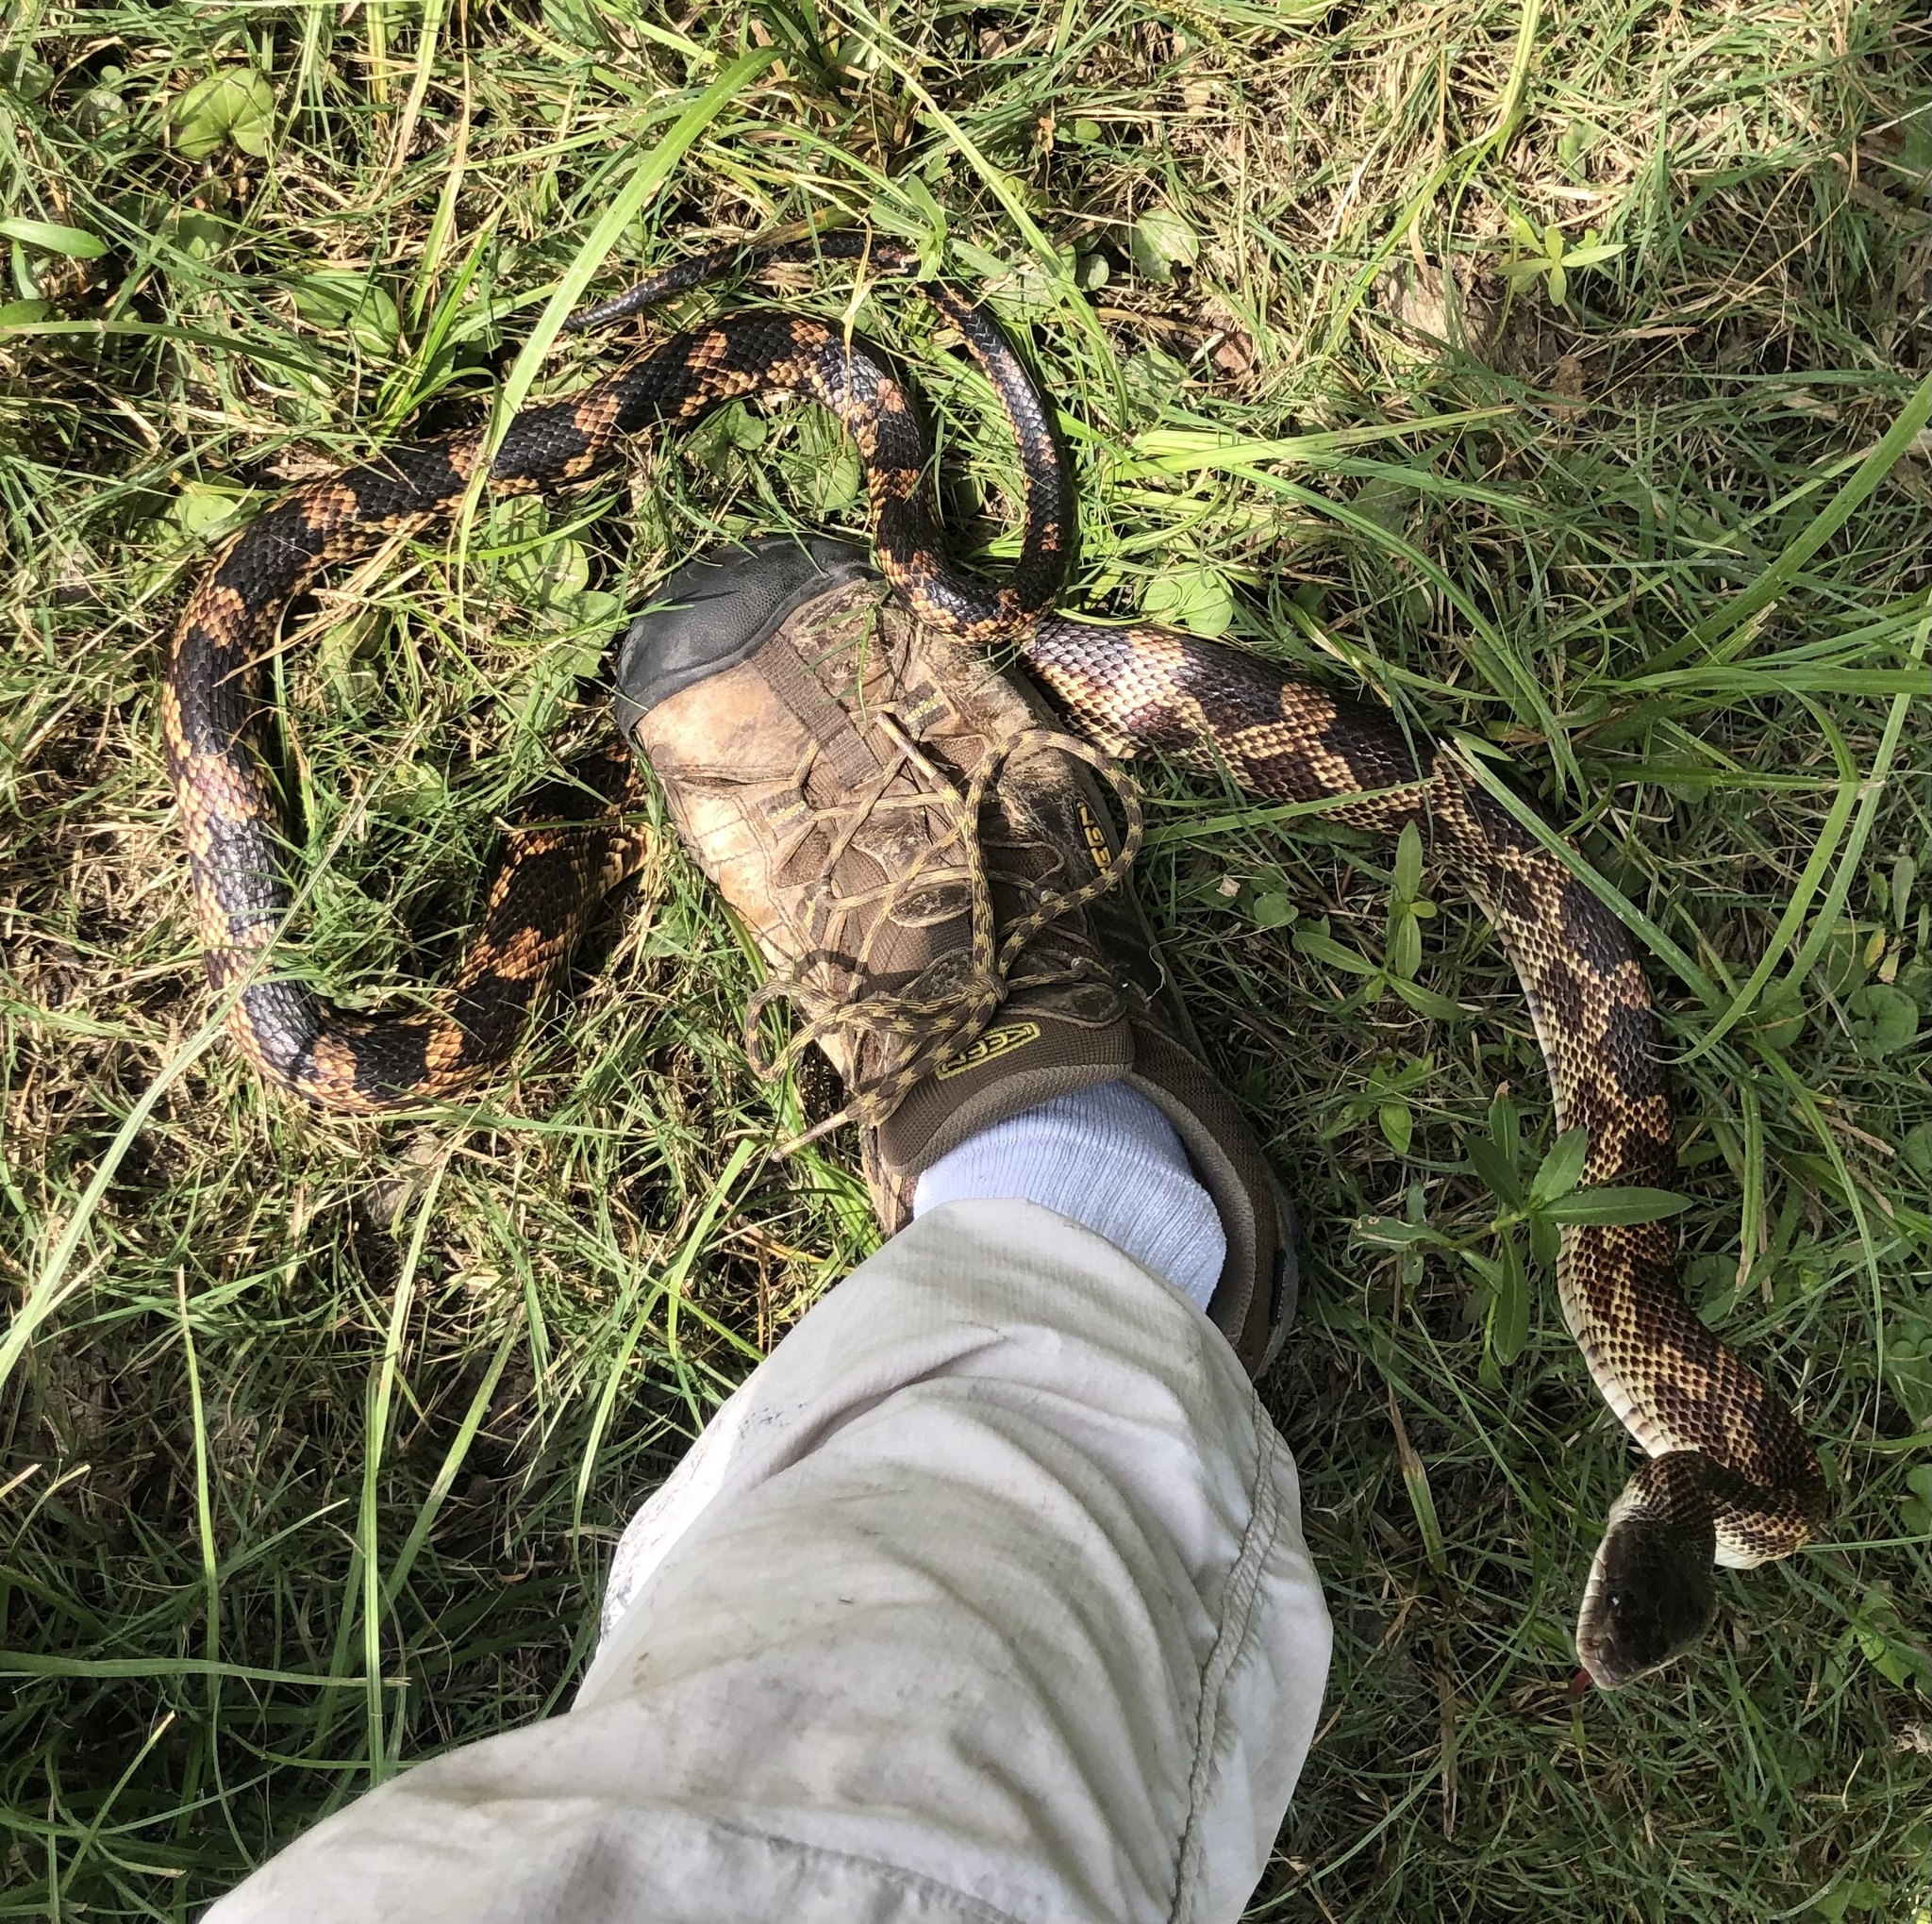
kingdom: Animalia
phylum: Chordata
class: Squamata
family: Colubridae
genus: Pantherophis
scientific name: Pantherophis obsoletus
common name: Black rat snake
